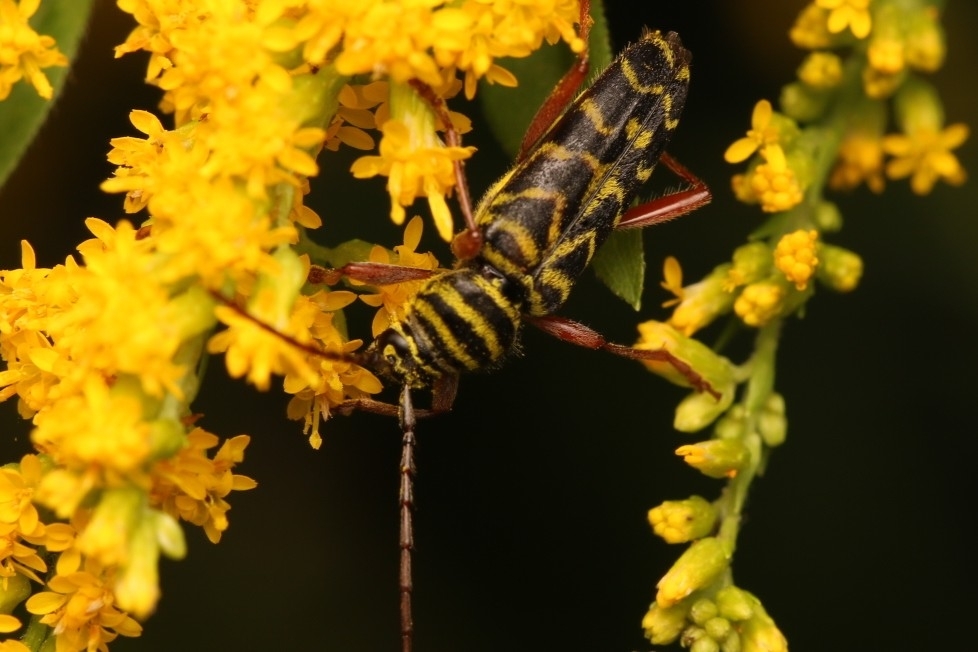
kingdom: Animalia
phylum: Arthropoda
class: Insecta
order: Coleoptera
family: Cerambycidae
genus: Megacyllene
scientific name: Megacyllene robiniae
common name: Locust borer
